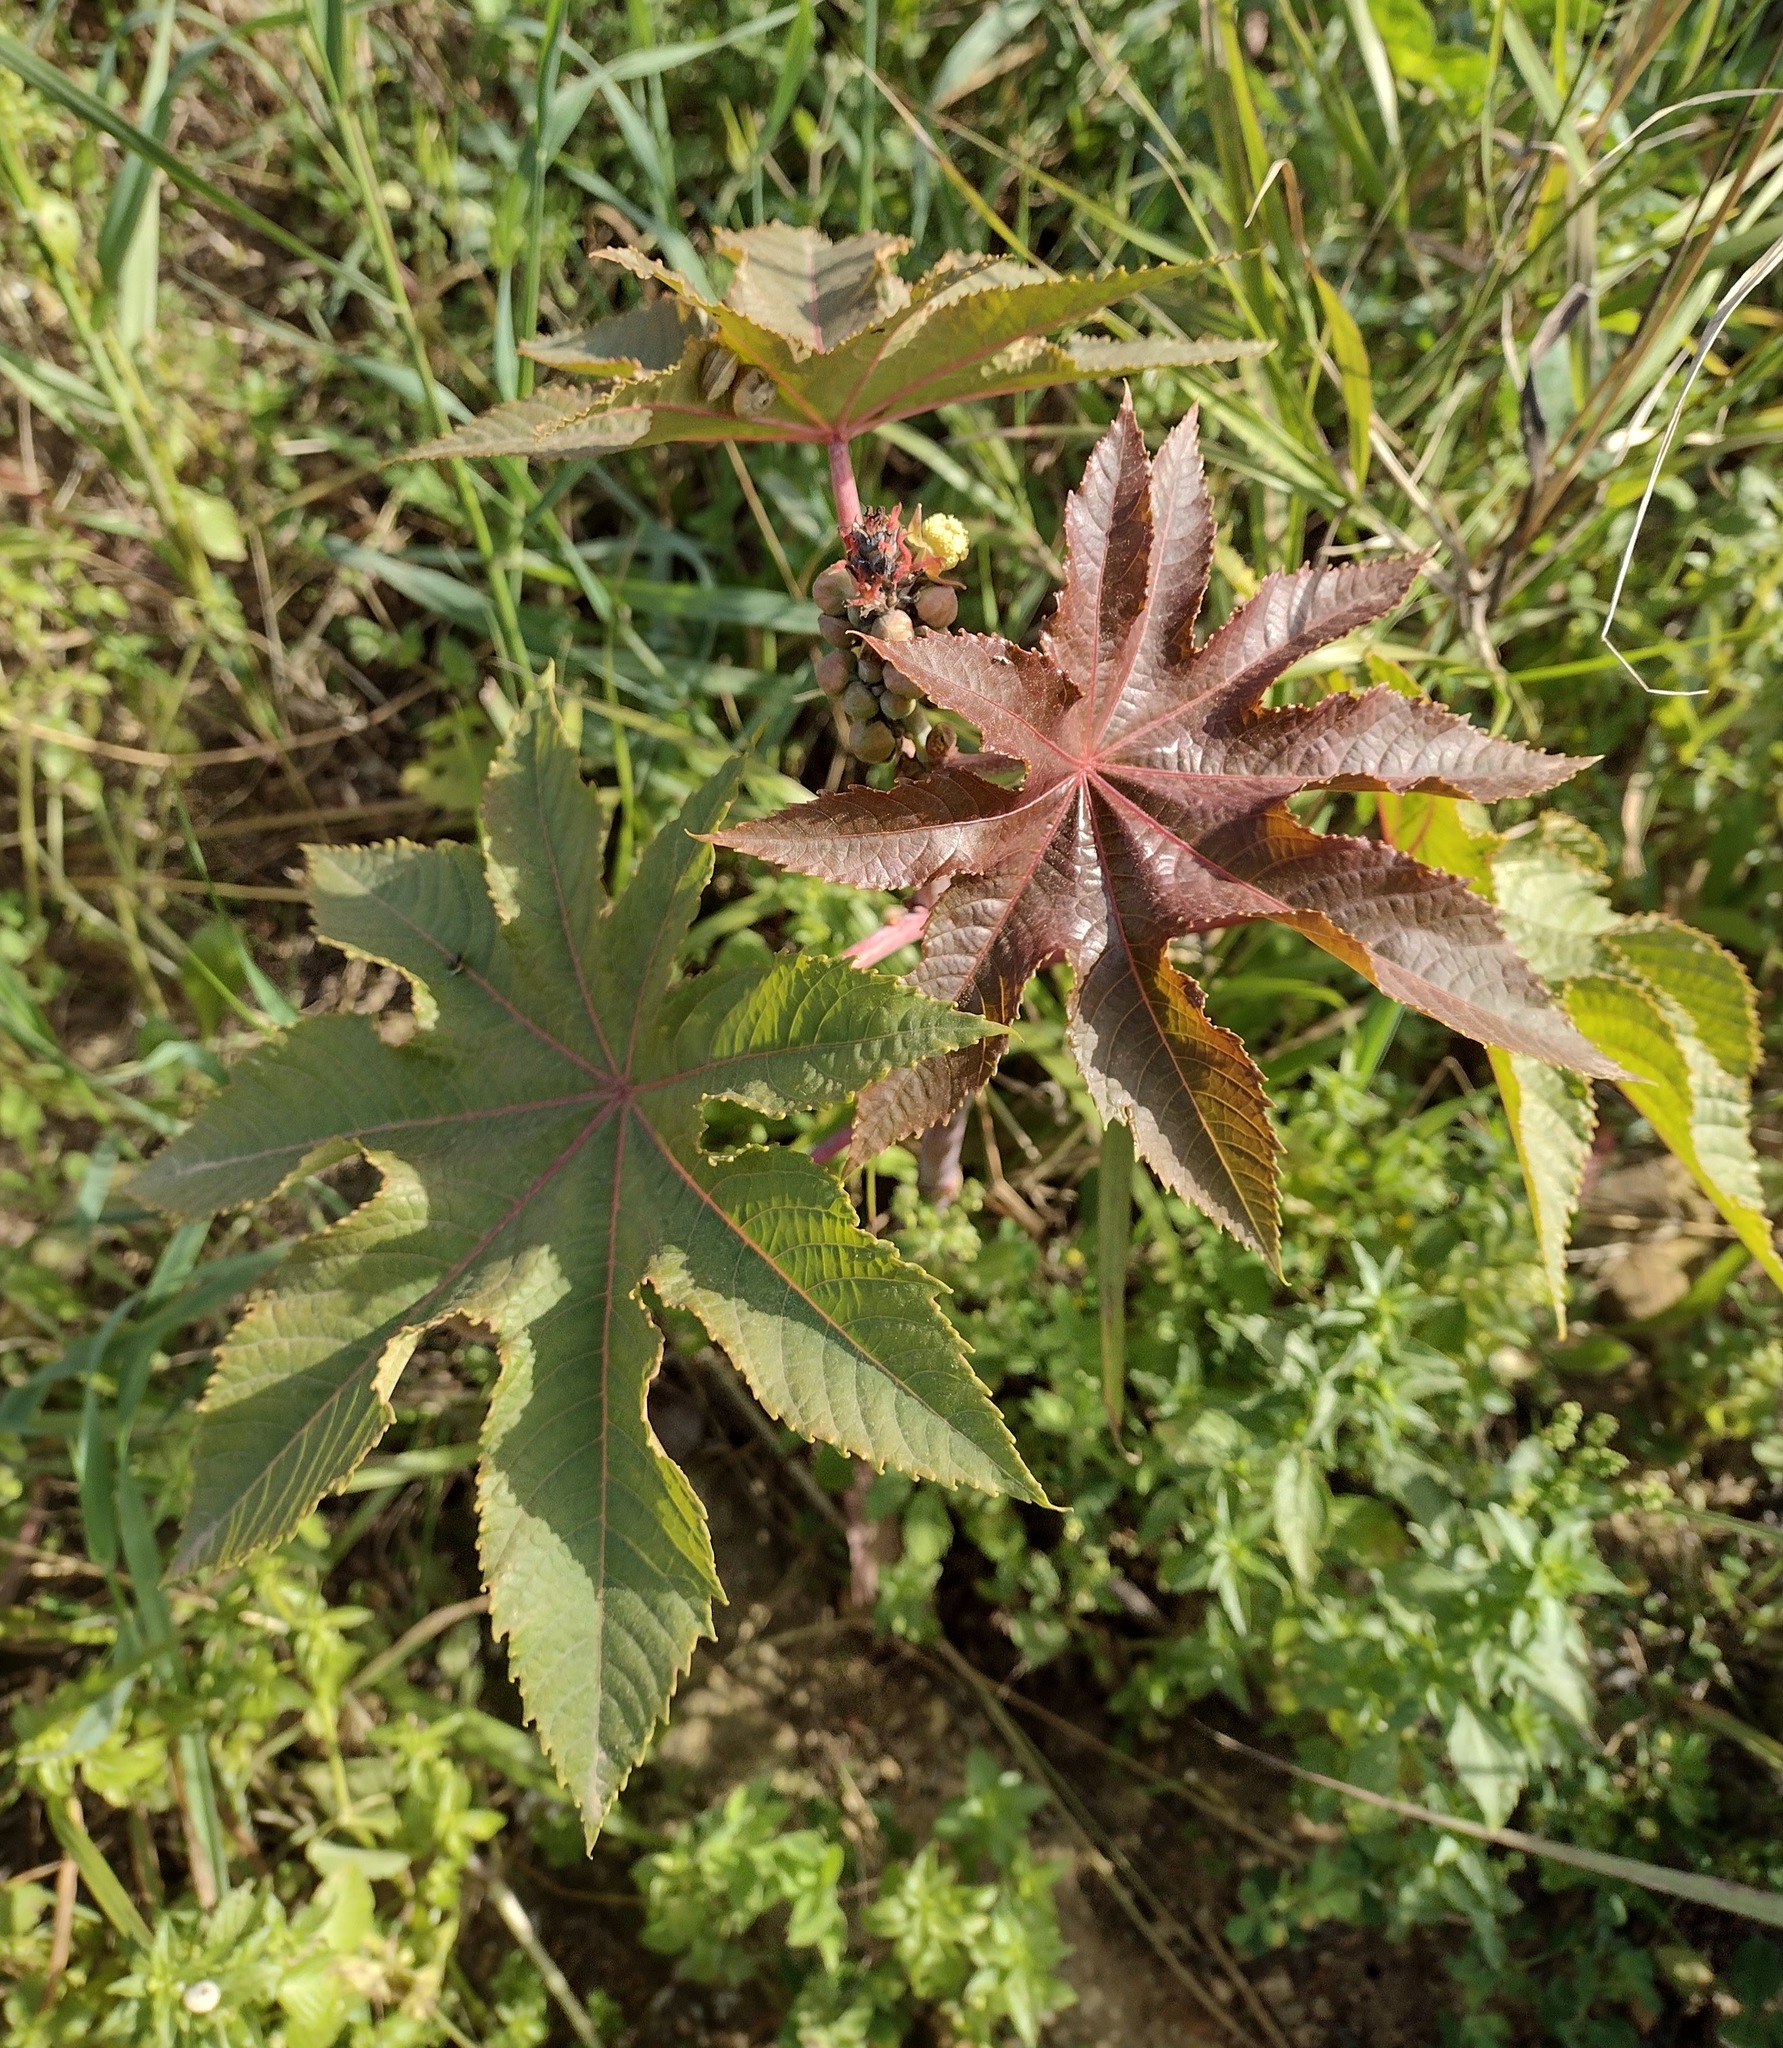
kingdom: Plantae
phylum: Tracheophyta
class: Magnoliopsida
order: Malpighiales
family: Euphorbiaceae
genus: Ricinus
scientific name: Ricinus communis
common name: Castor-oil-plant
